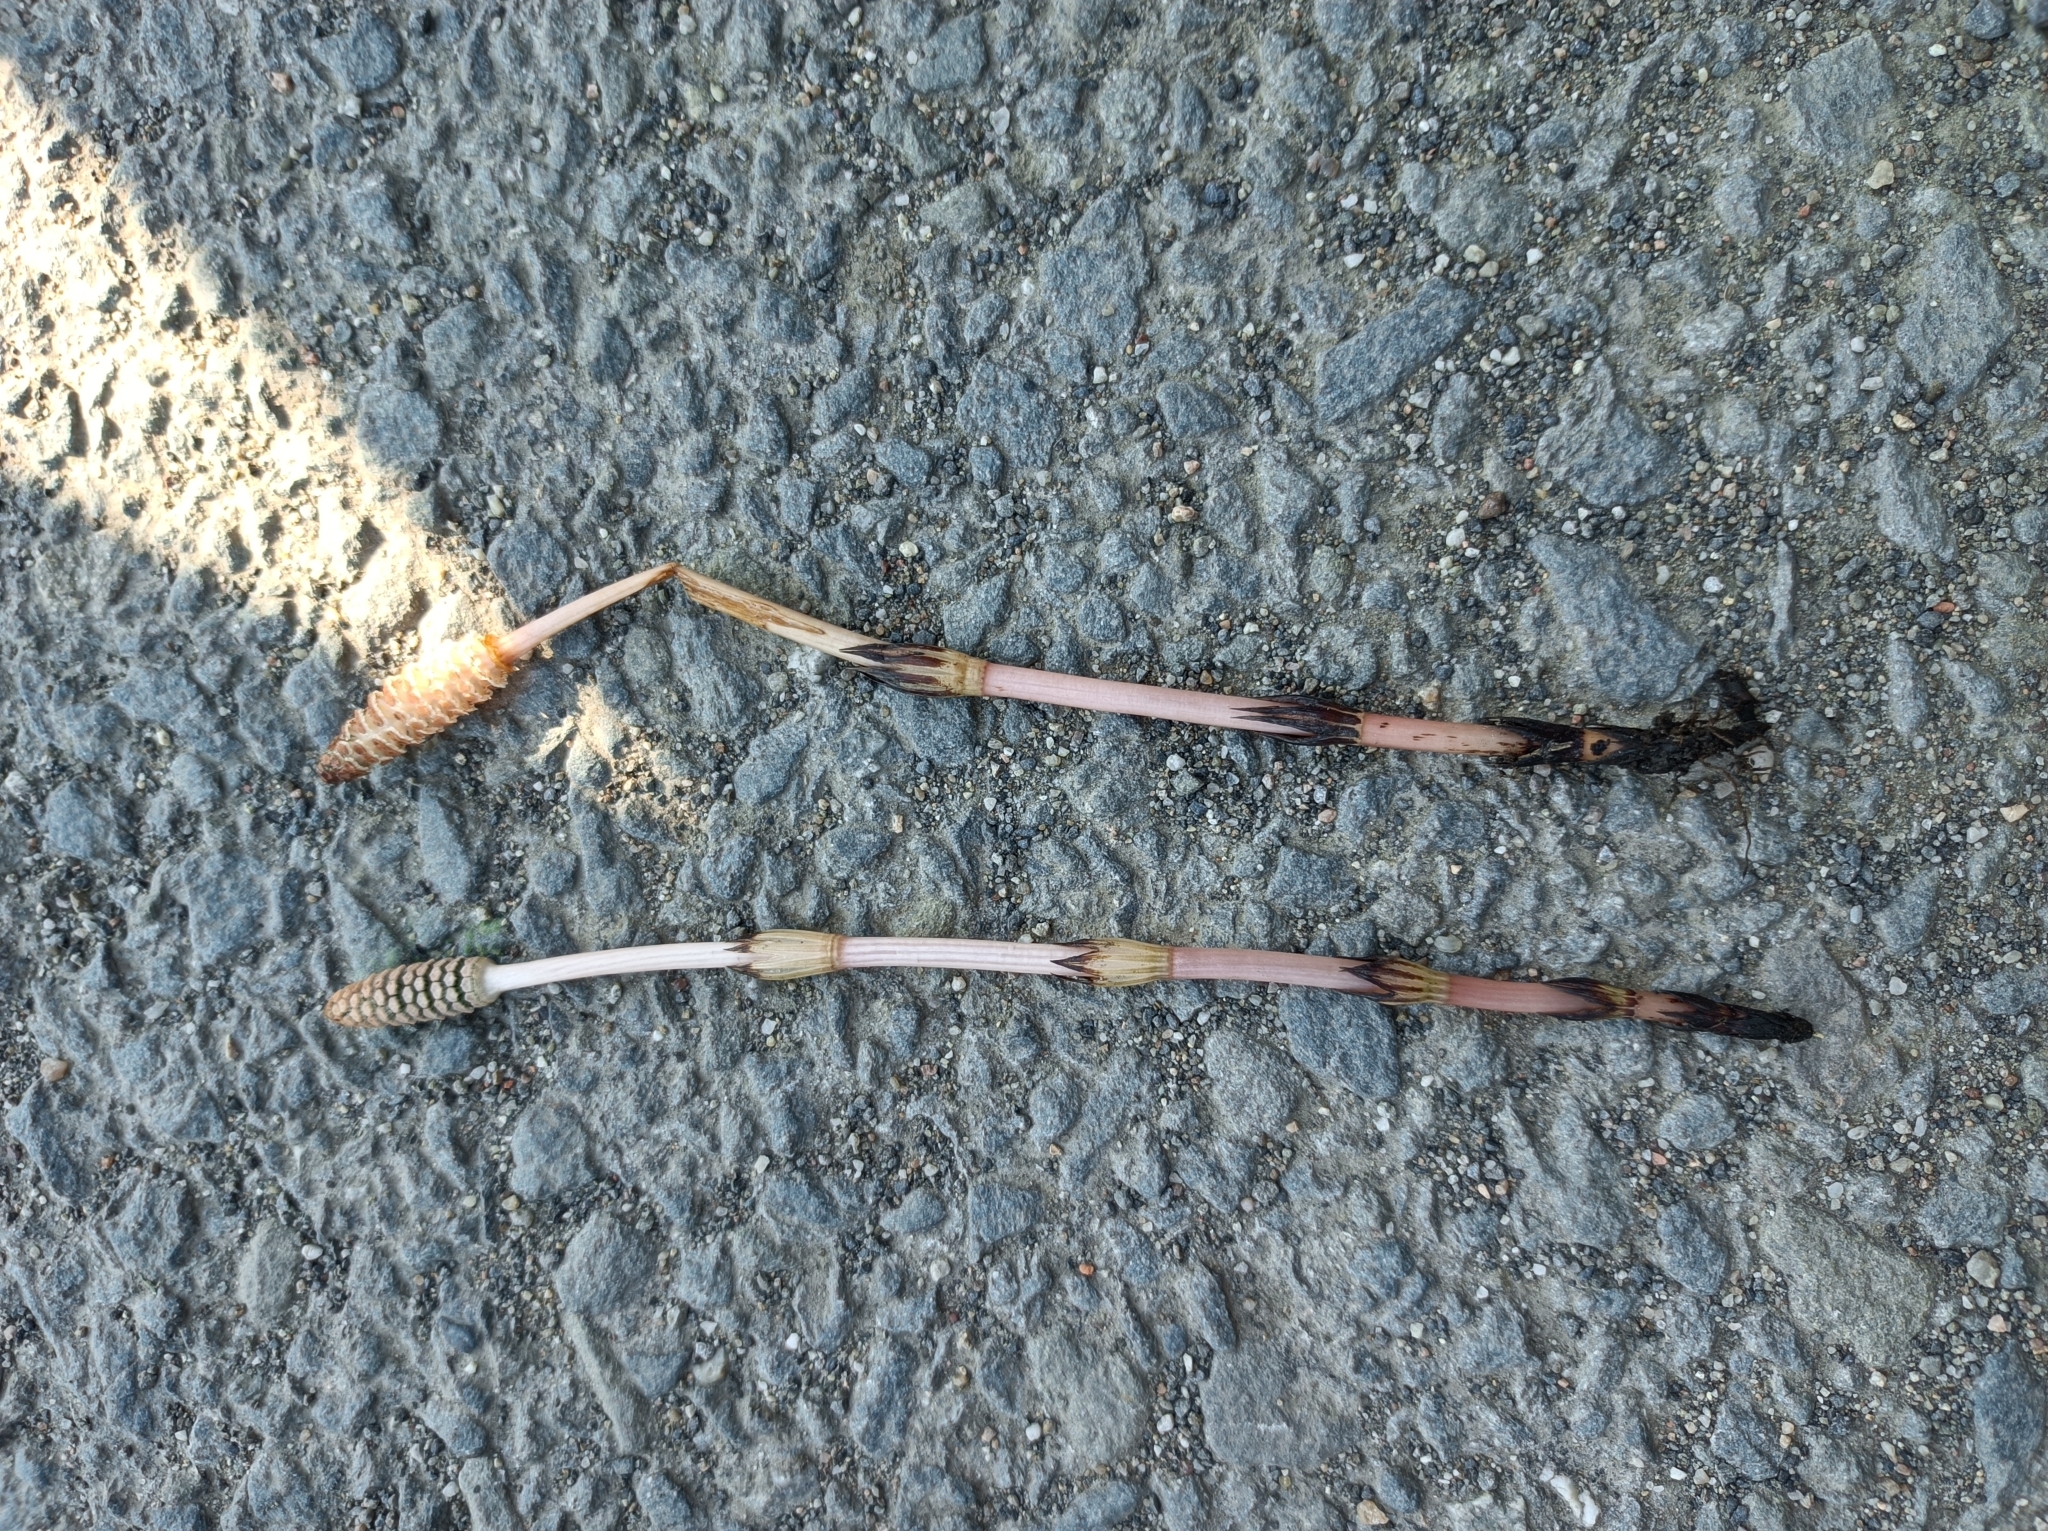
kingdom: Plantae
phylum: Tracheophyta
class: Polypodiopsida
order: Equisetales
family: Equisetaceae
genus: Equisetum
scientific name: Equisetum arvense
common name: Field horsetail
